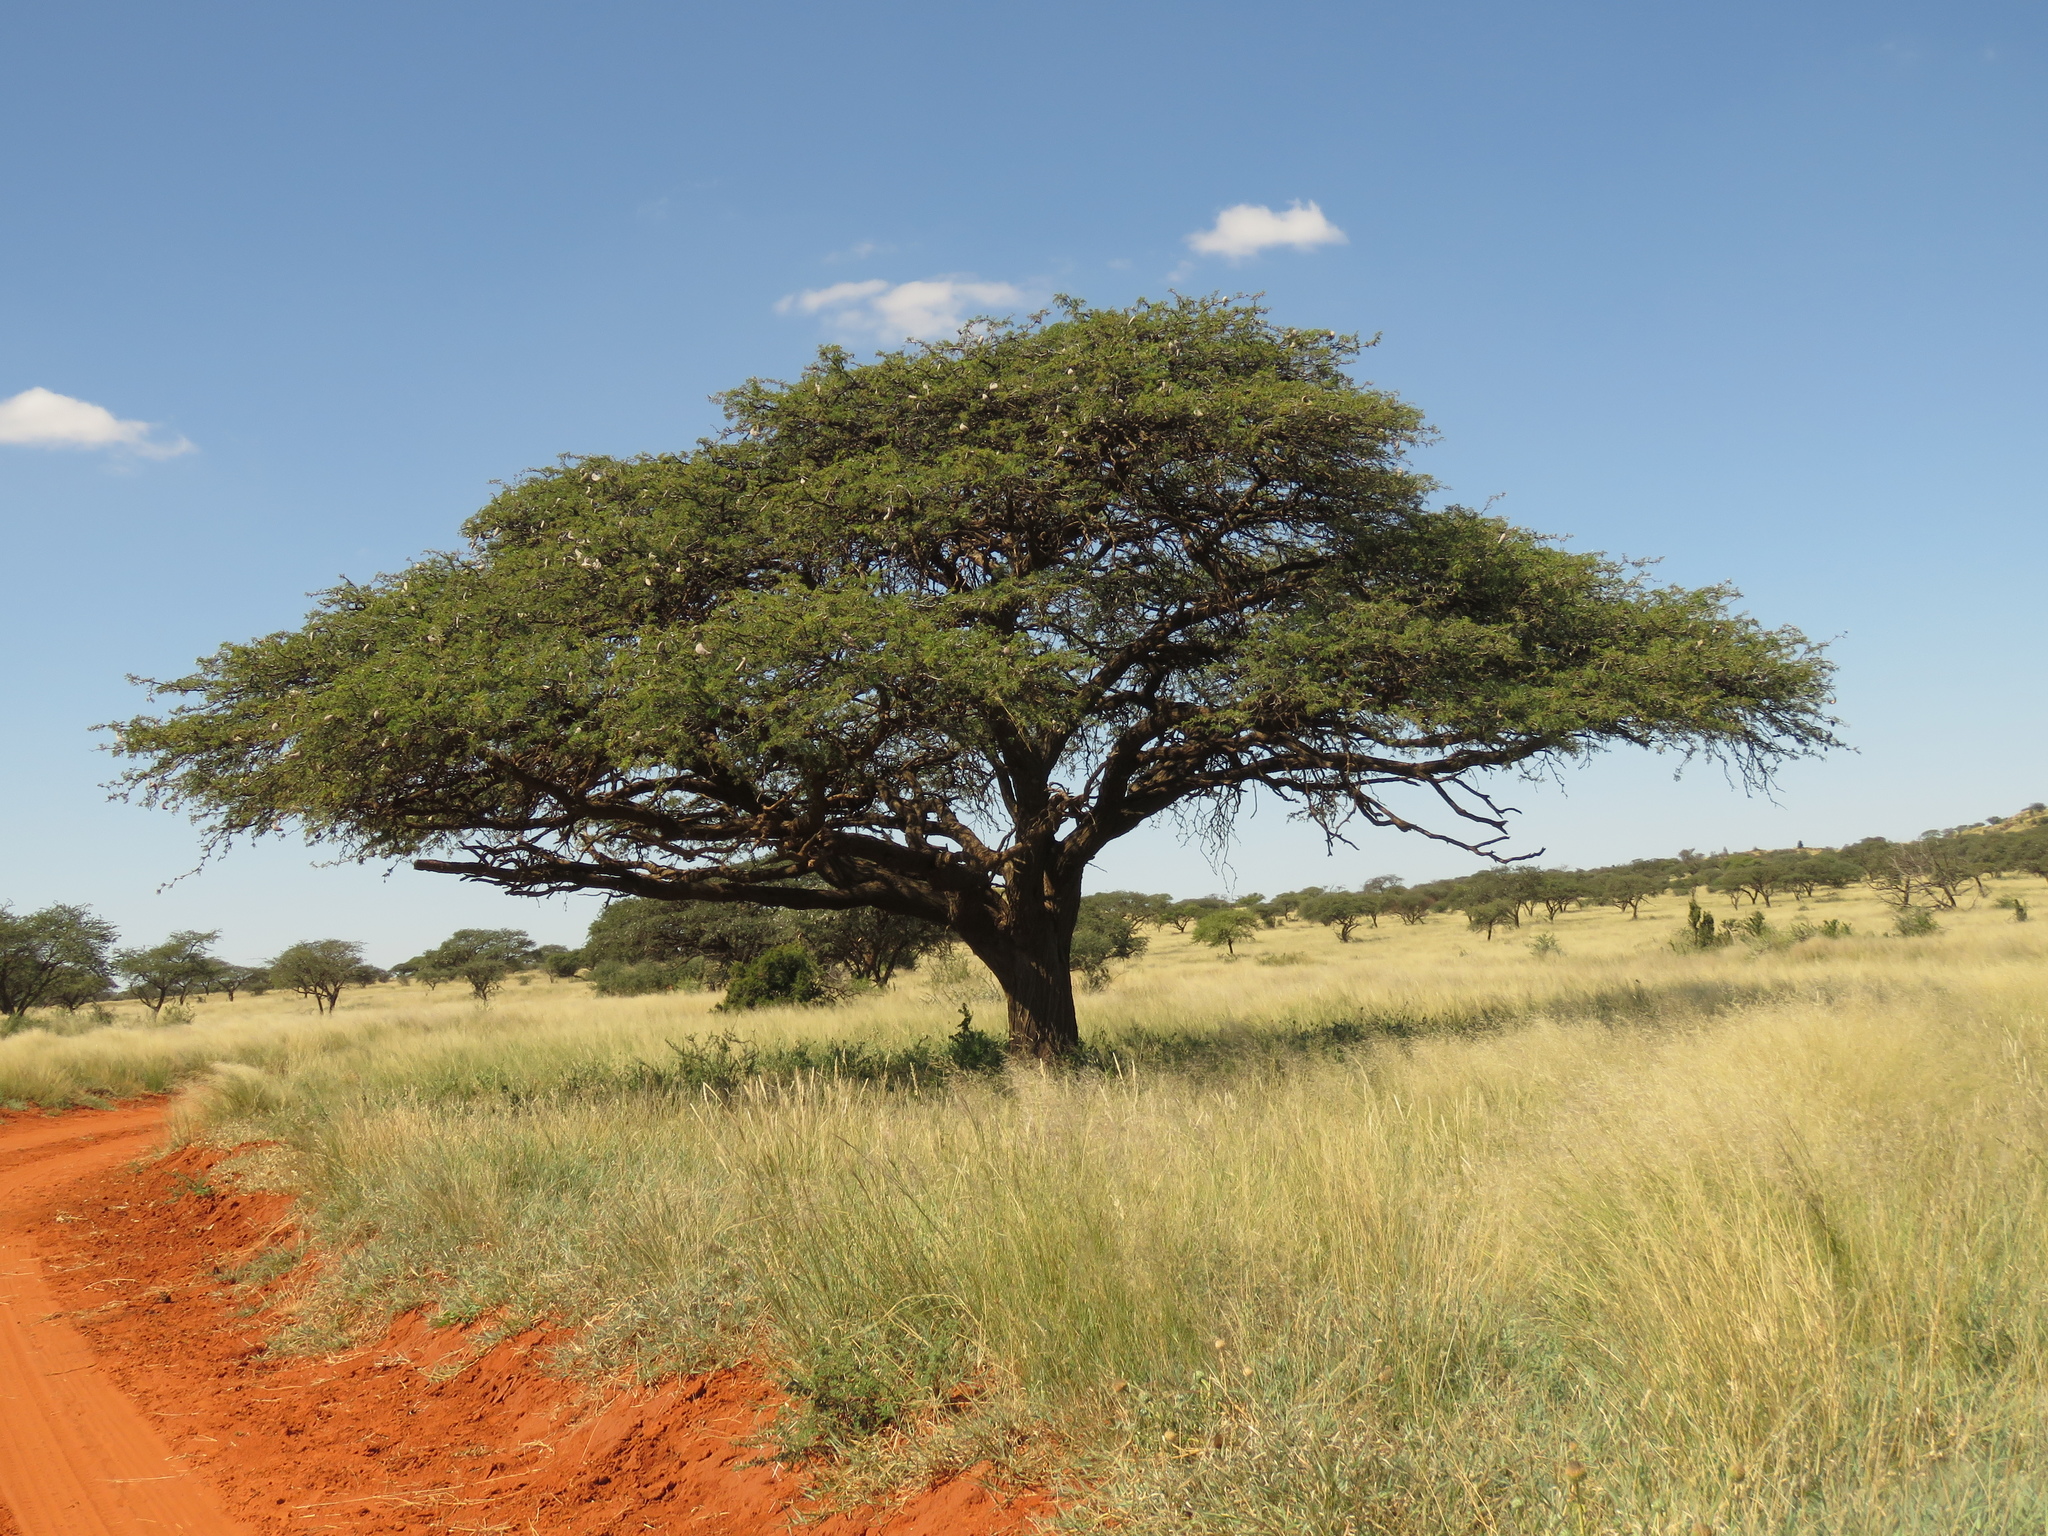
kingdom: Plantae
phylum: Tracheophyta
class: Magnoliopsida
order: Fabales
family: Fabaceae
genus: Vachellia
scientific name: Vachellia erioloba
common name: Camel thorn
